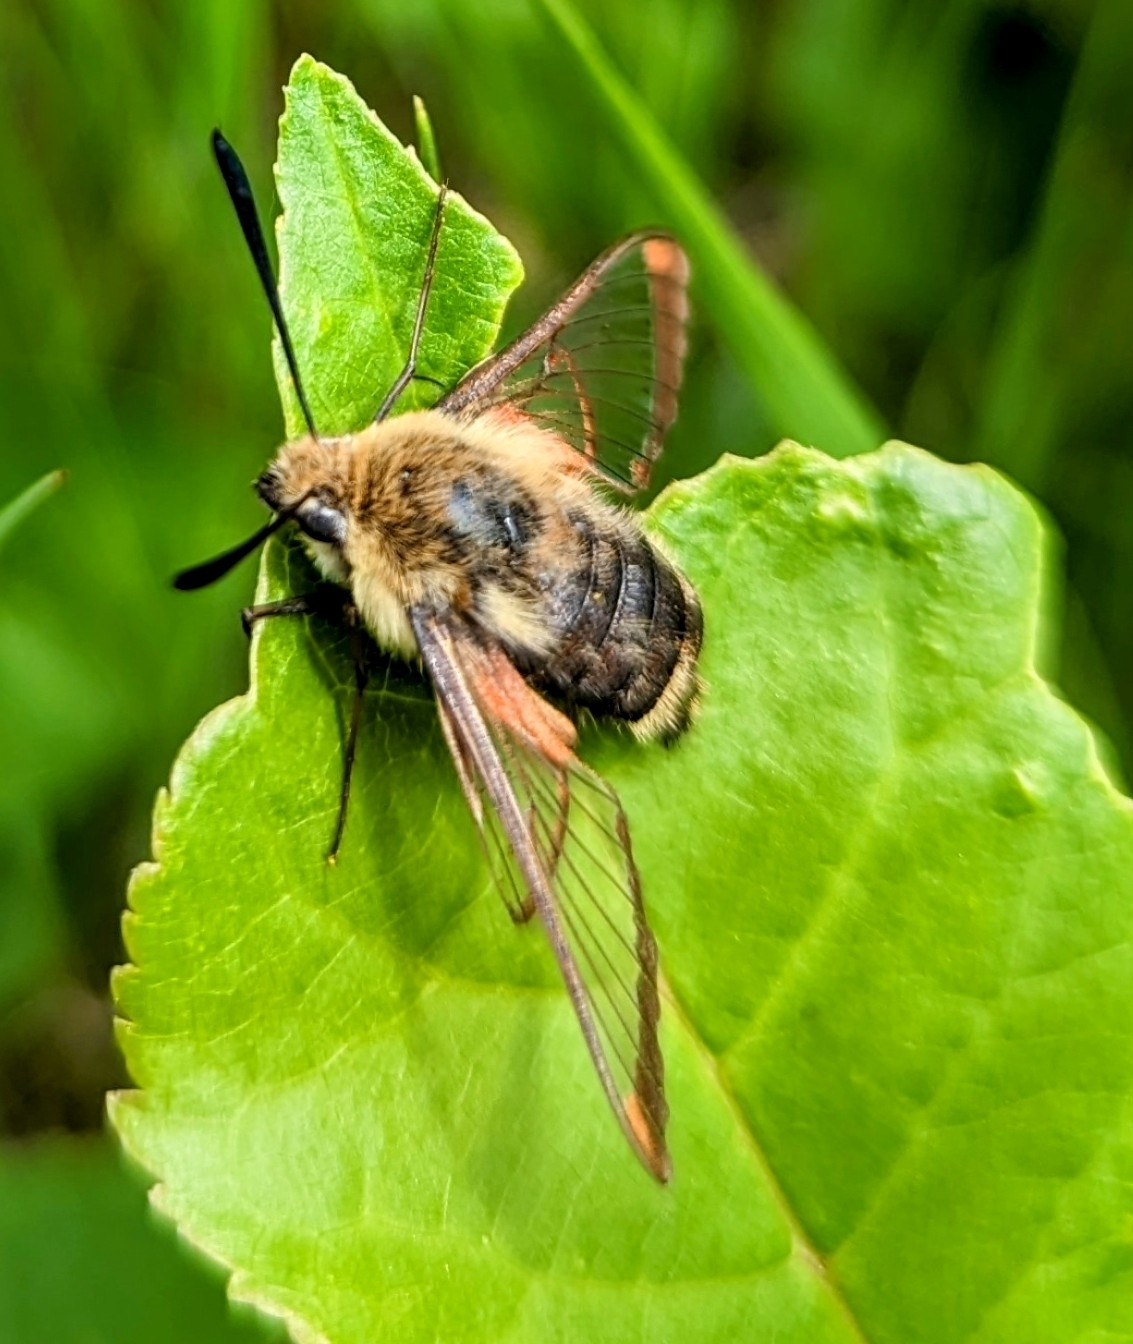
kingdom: Animalia
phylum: Arthropoda
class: Insecta
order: Lepidoptera
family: Sphingidae
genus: Hemaris
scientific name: Hemaris diffinis
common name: Bumblebee moth
